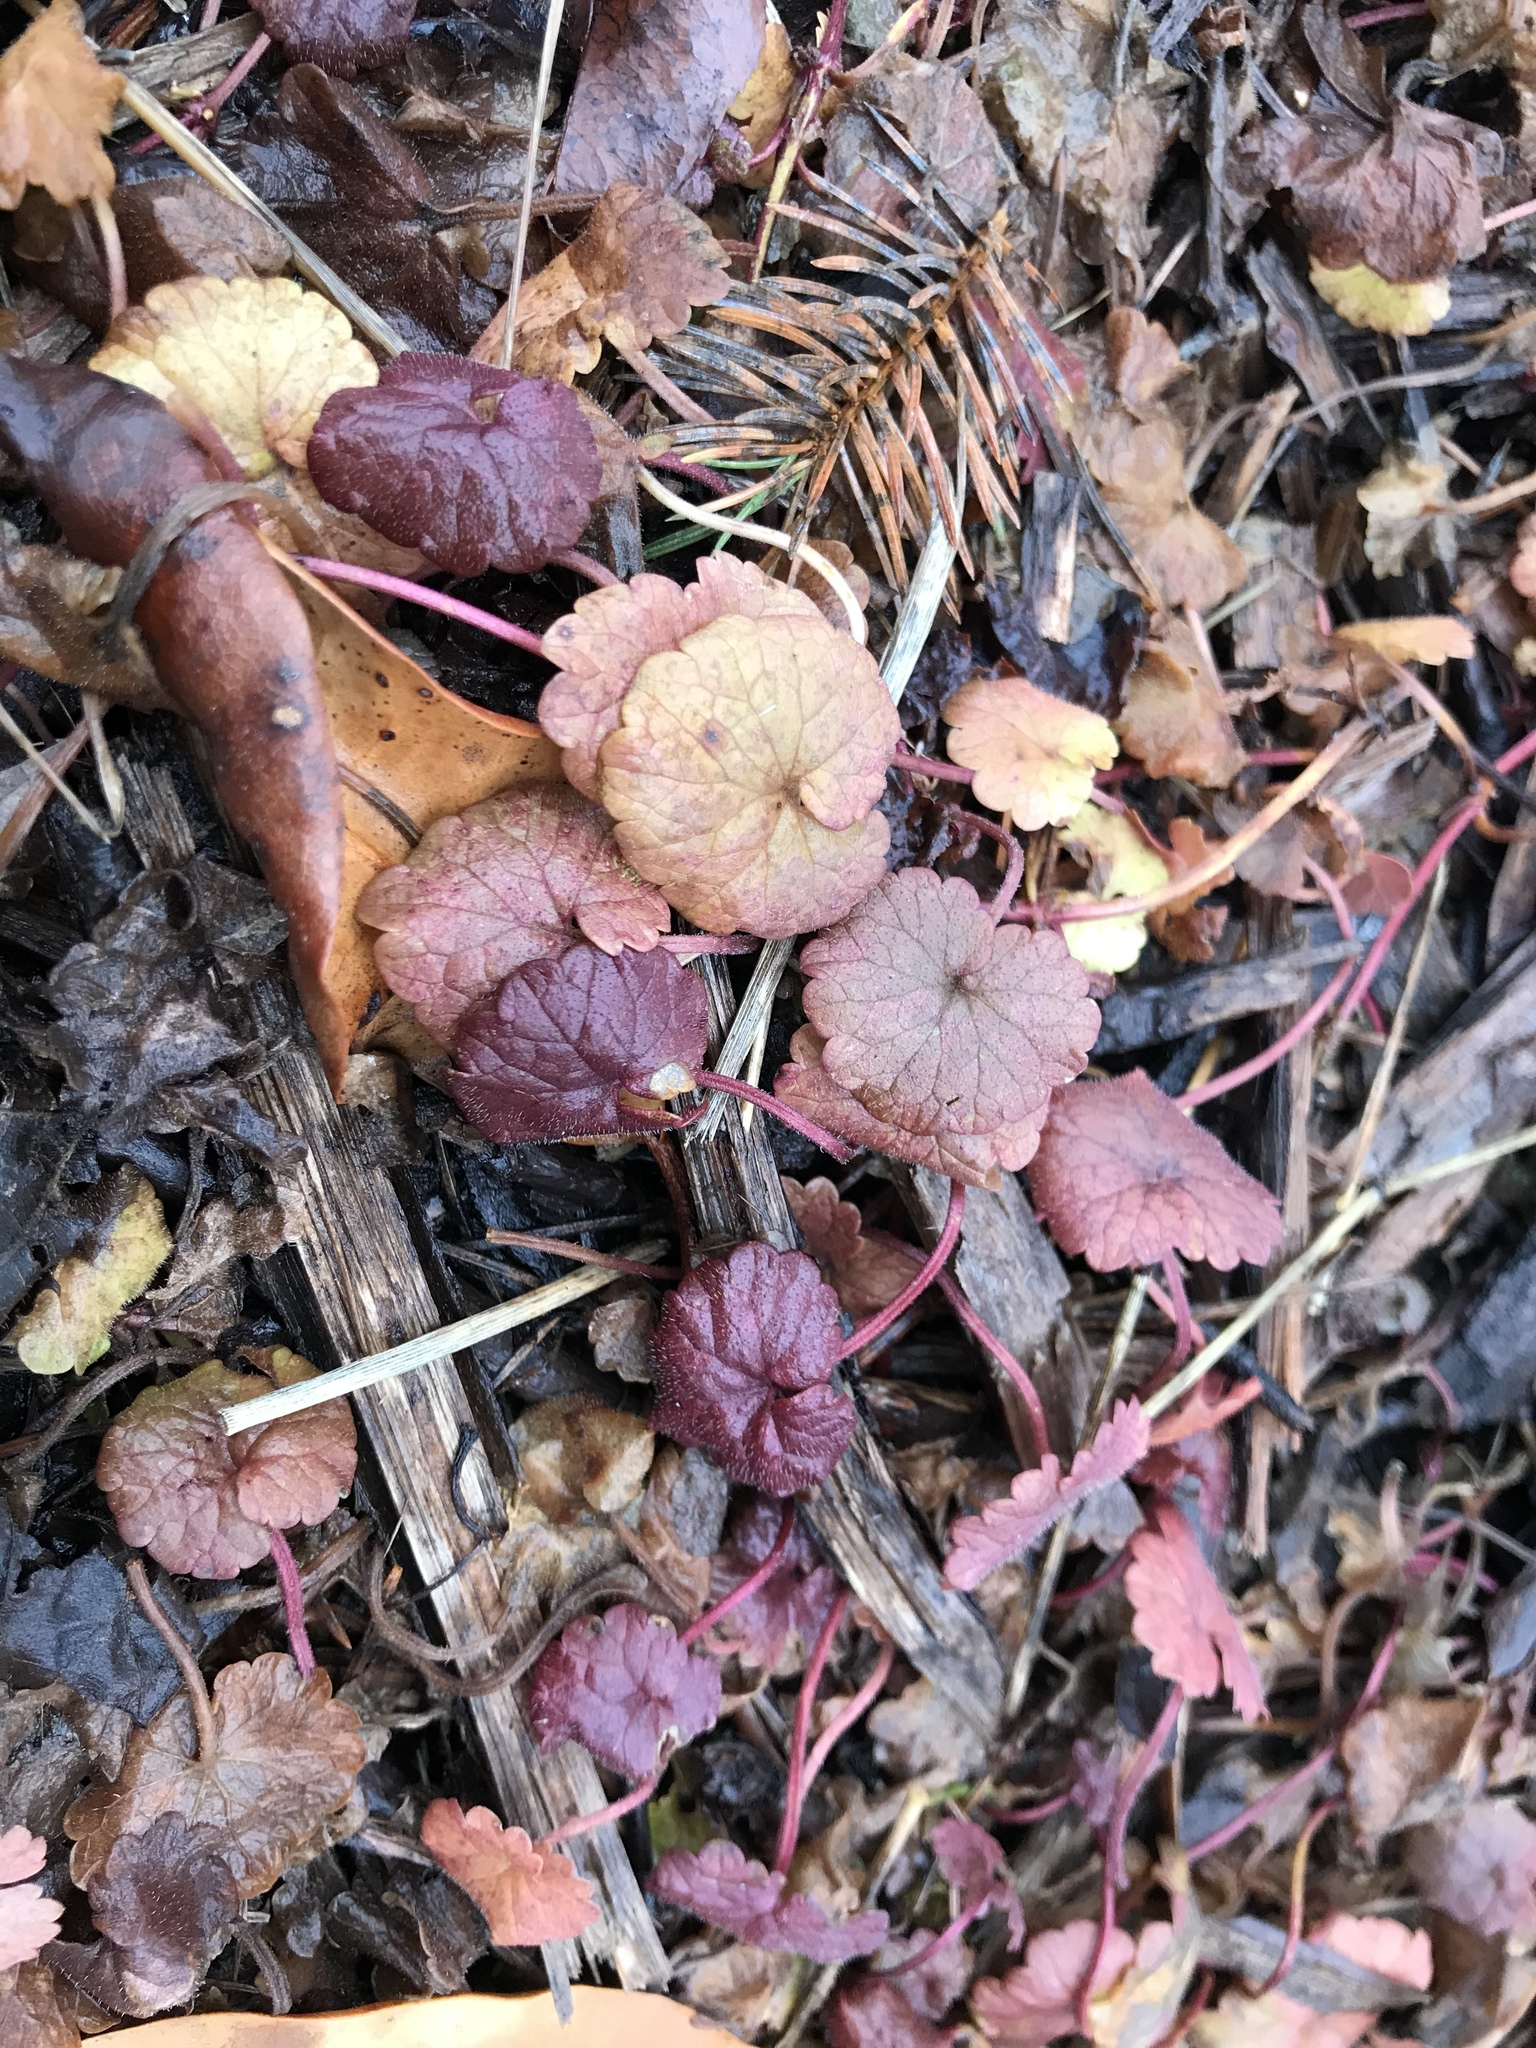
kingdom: Plantae
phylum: Tracheophyta
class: Magnoliopsida
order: Lamiales
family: Lamiaceae
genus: Glechoma
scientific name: Glechoma hederacea
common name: Ground ivy
